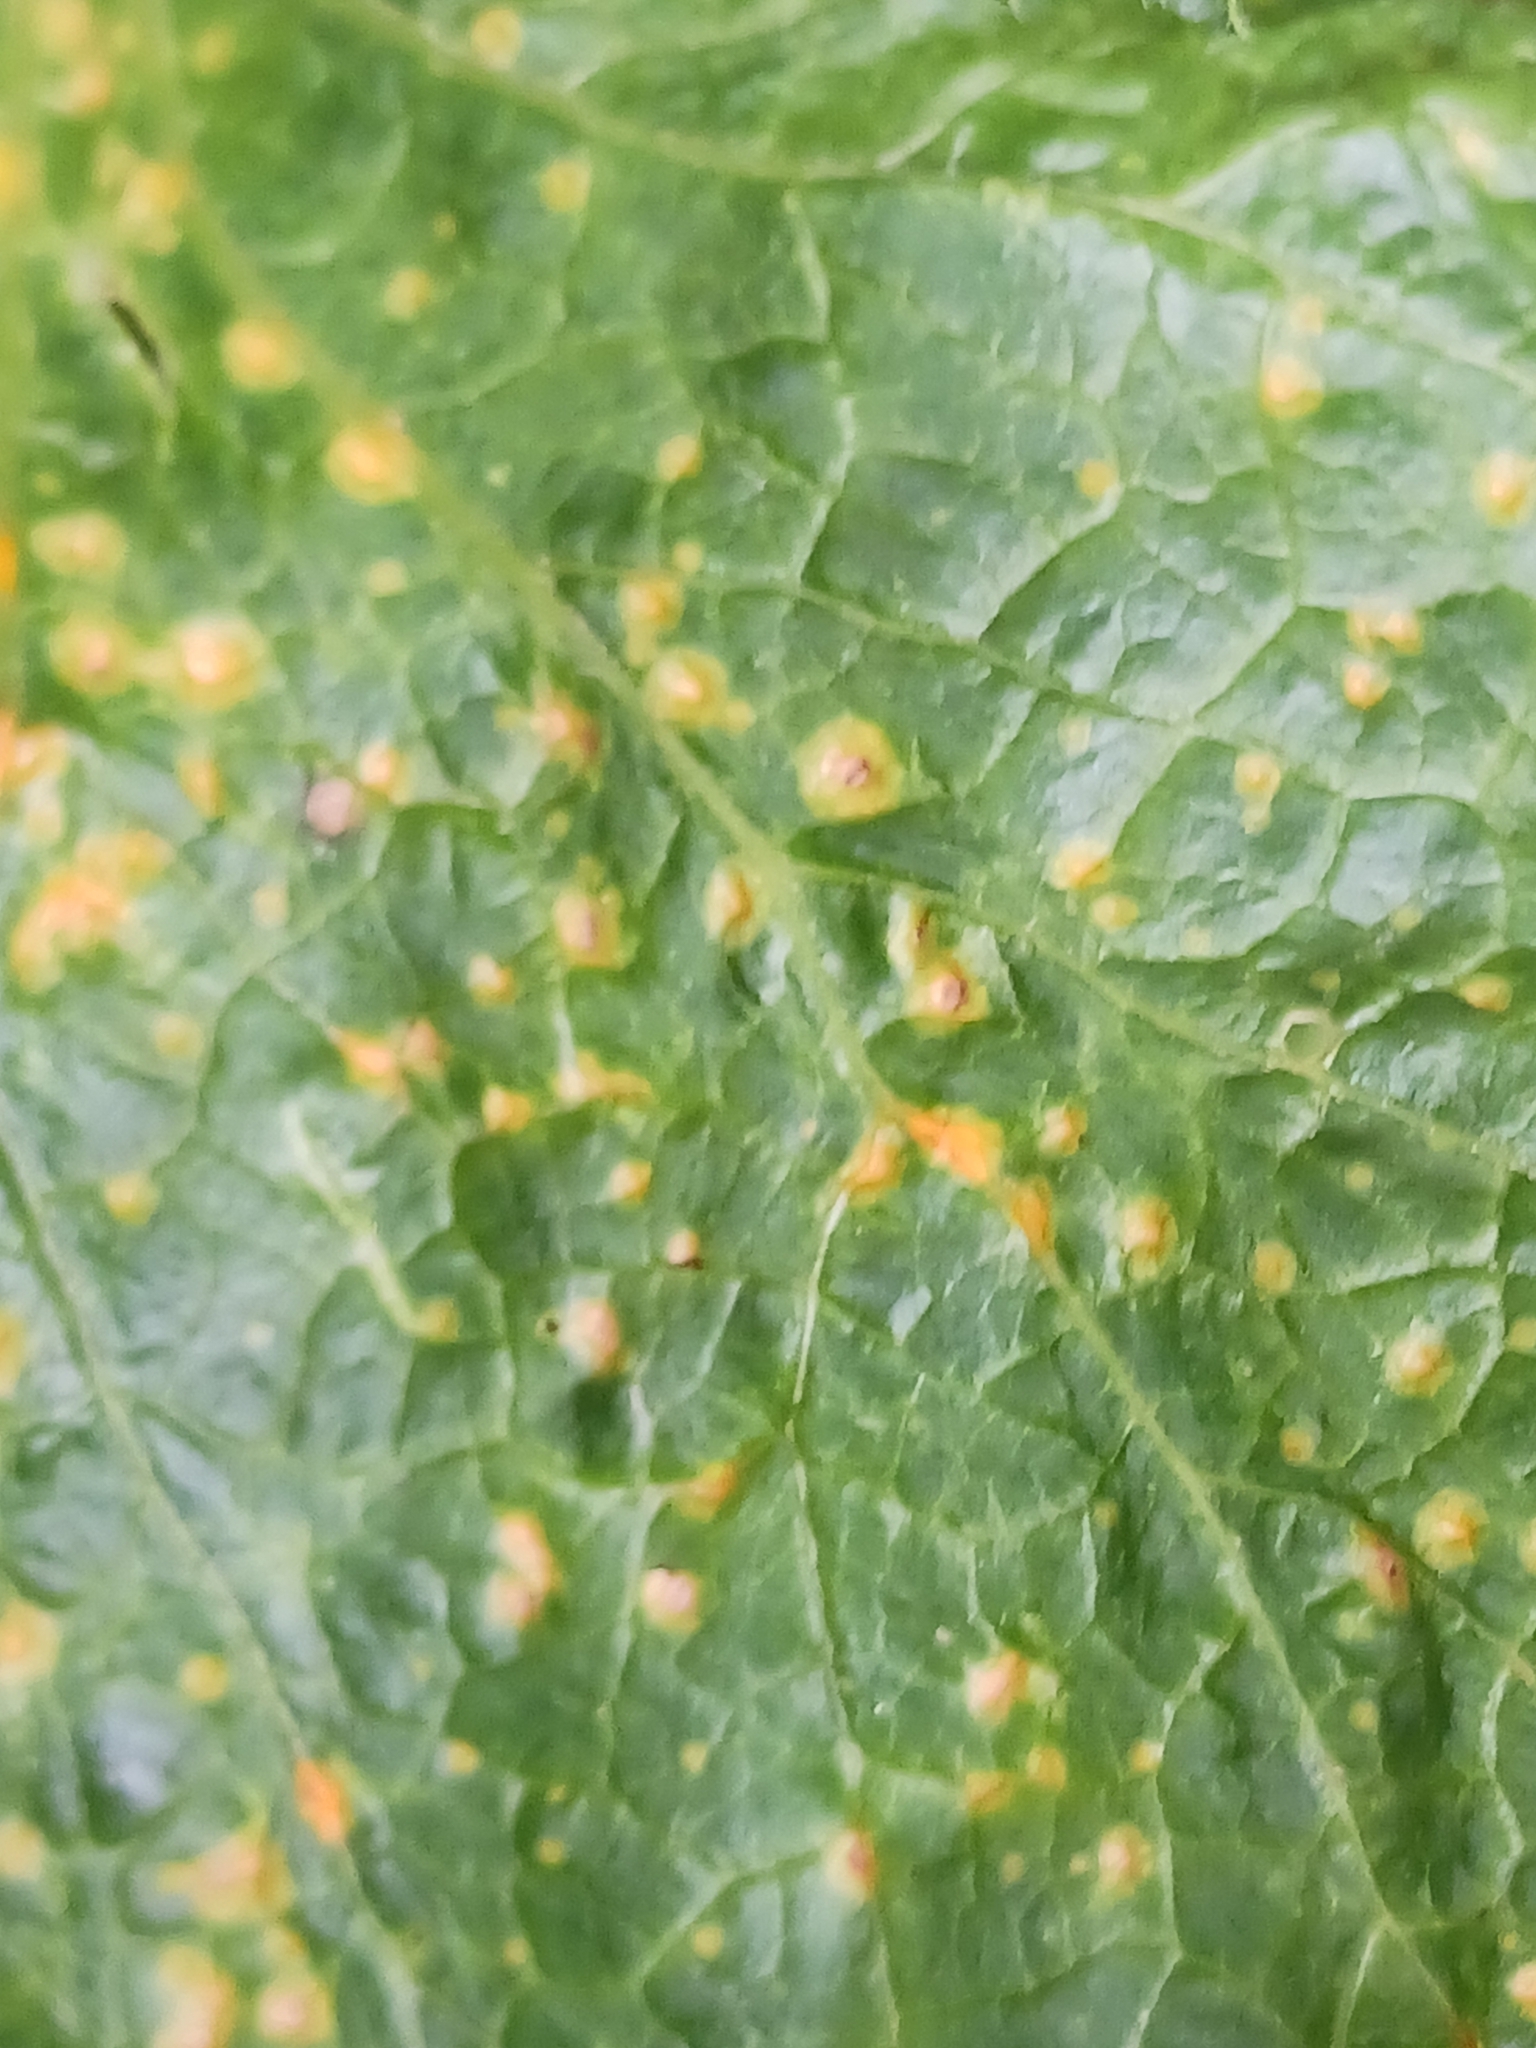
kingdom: Fungi
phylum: Basidiomycota
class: Pucciniomycetes
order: Pucciniales
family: Pucciniaceae
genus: Puccinia
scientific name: Puccinia malvacearum
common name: Hollyhock rust
